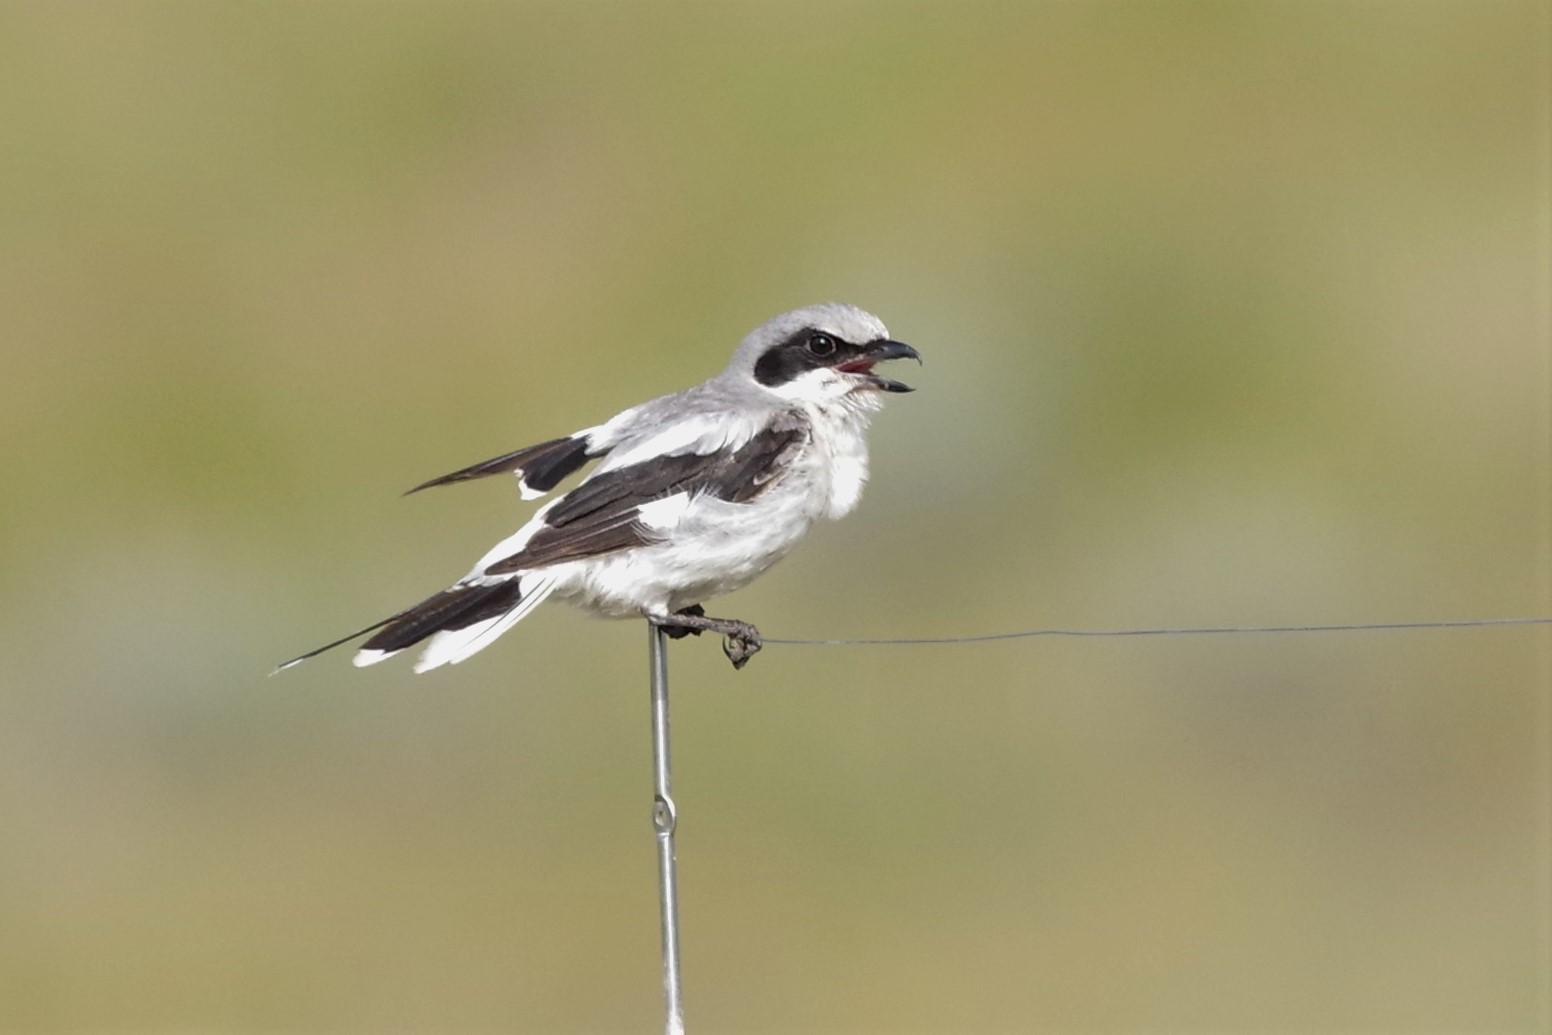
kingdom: Animalia
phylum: Chordata
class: Aves
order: Passeriformes
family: Laniidae
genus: Lanius
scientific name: Lanius ludovicianus
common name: Loggerhead shrike
